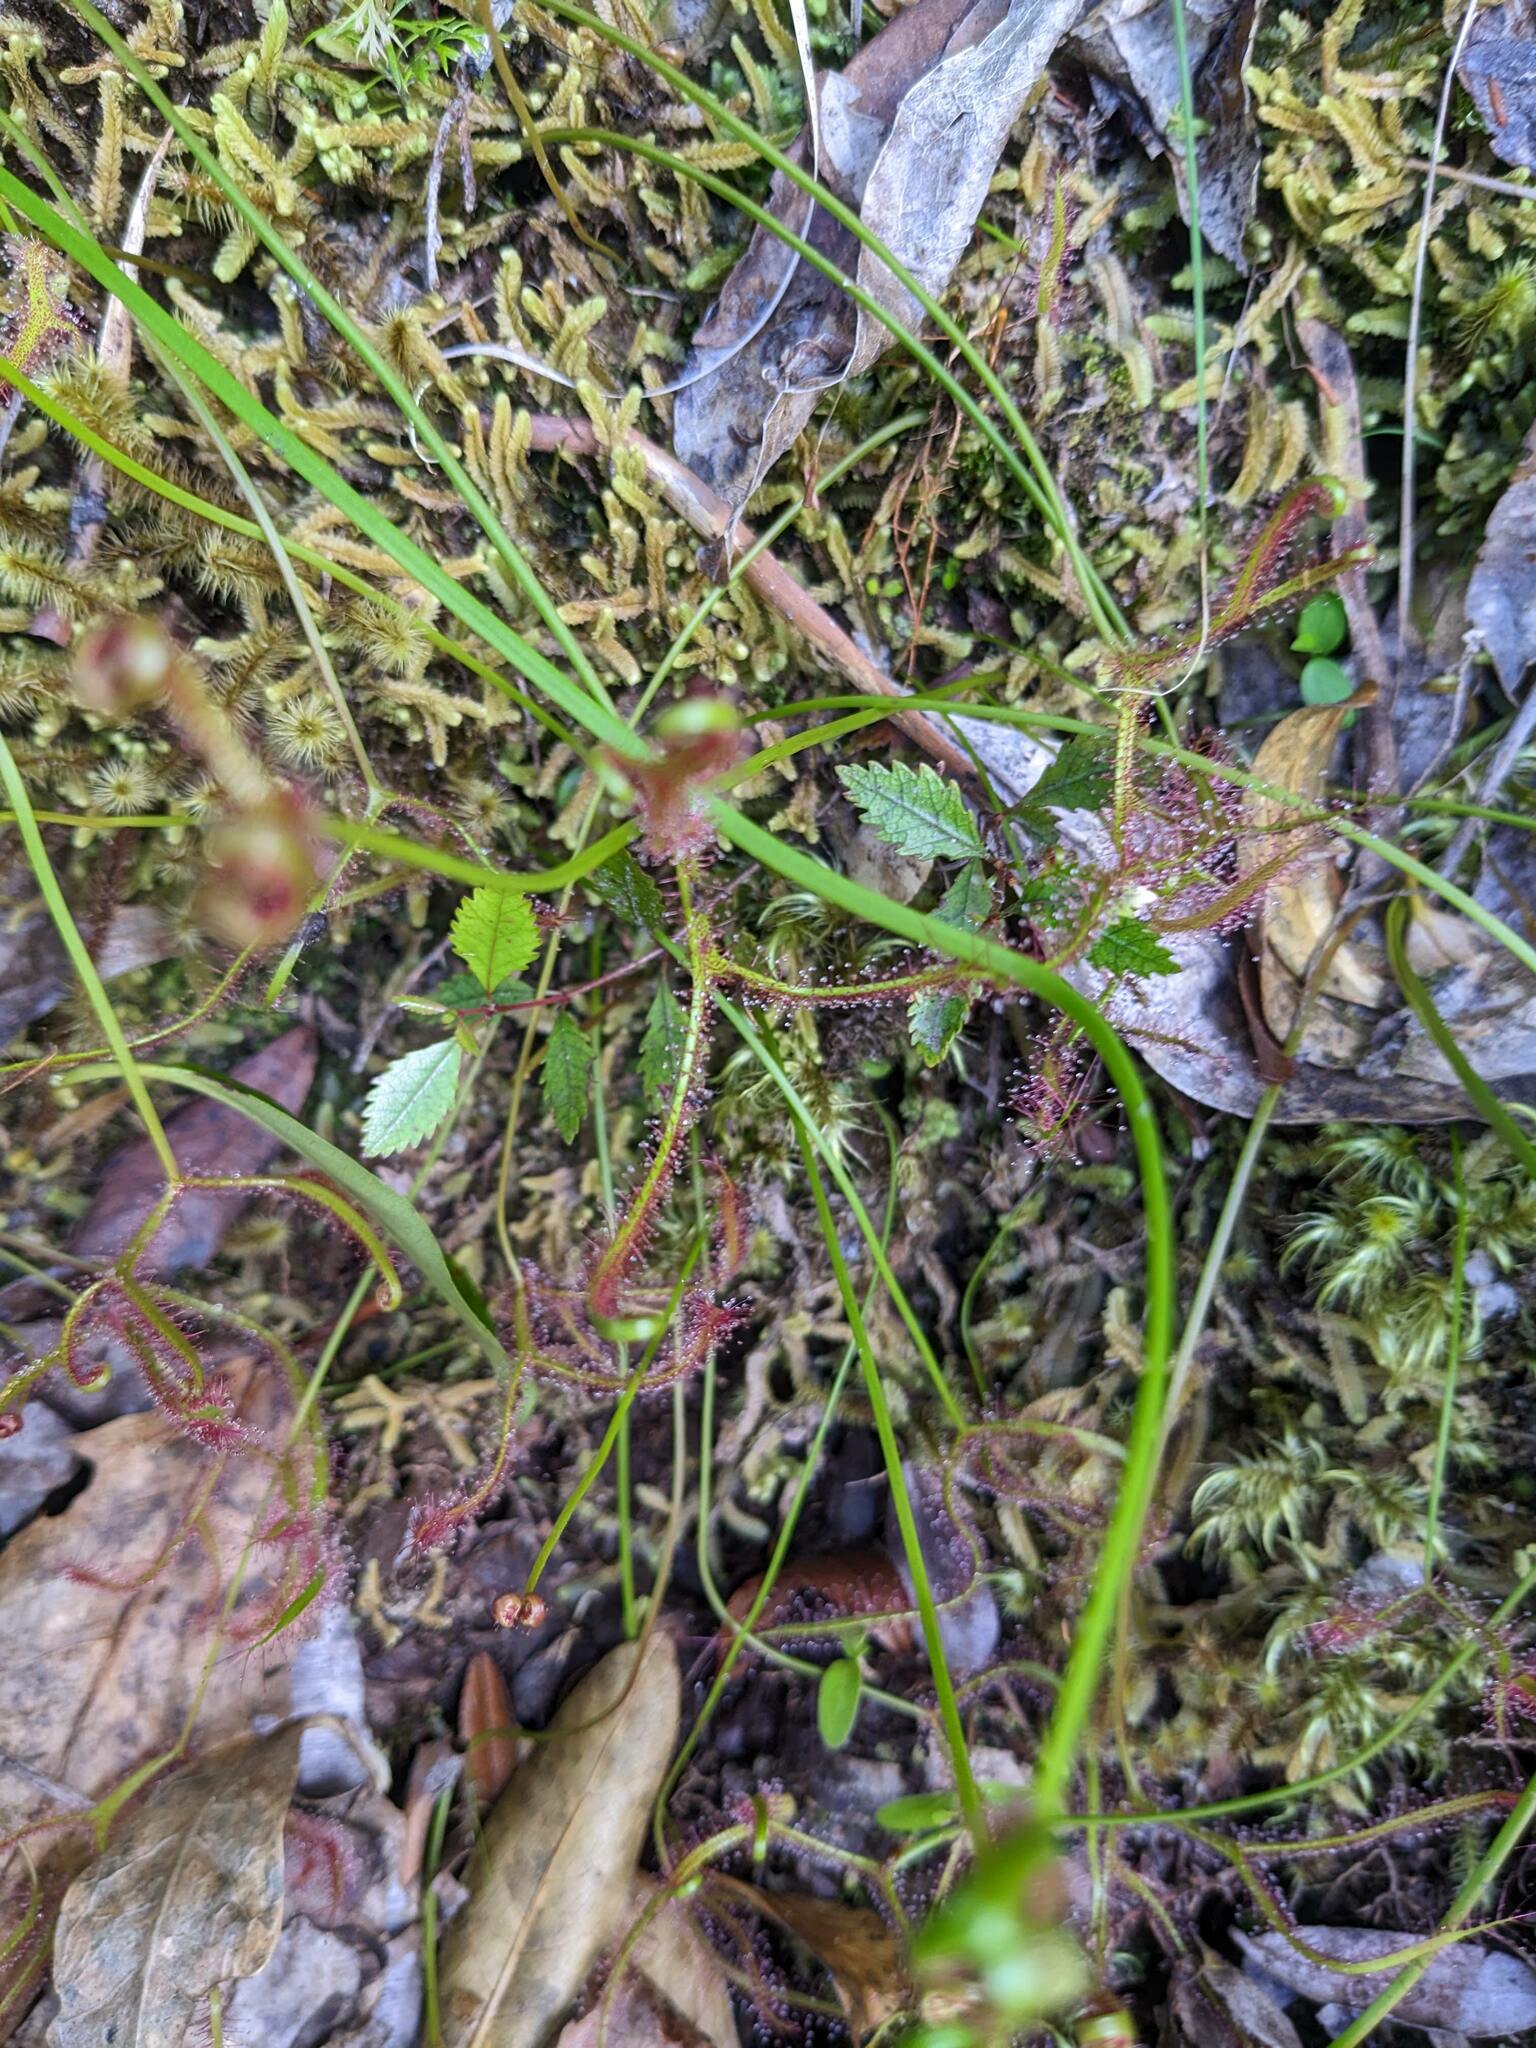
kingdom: Plantae
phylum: Tracheophyta
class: Magnoliopsida
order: Caryophyllales
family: Droseraceae
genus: Drosera
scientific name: Drosera binata
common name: Forked sundew
